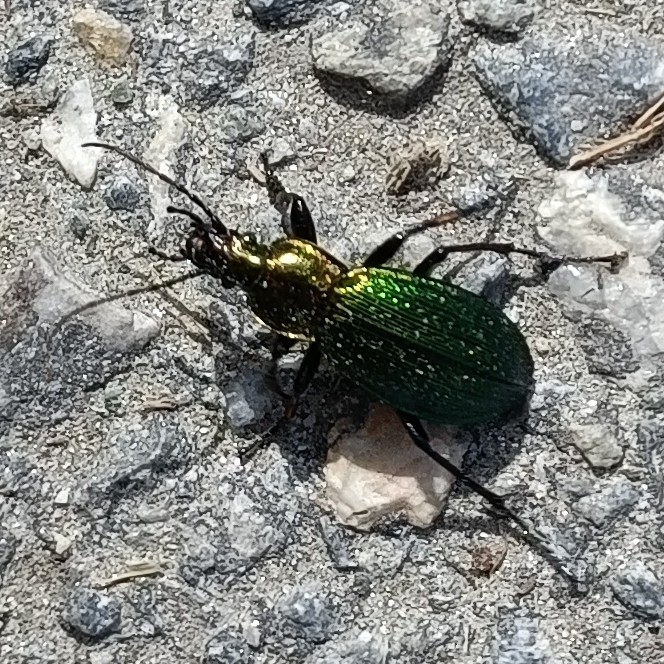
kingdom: Animalia
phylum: Arthropoda
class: Insecta
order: Coleoptera
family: Carabidae
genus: Carabus
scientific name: Carabus monilis
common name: Necklace ground beetle
